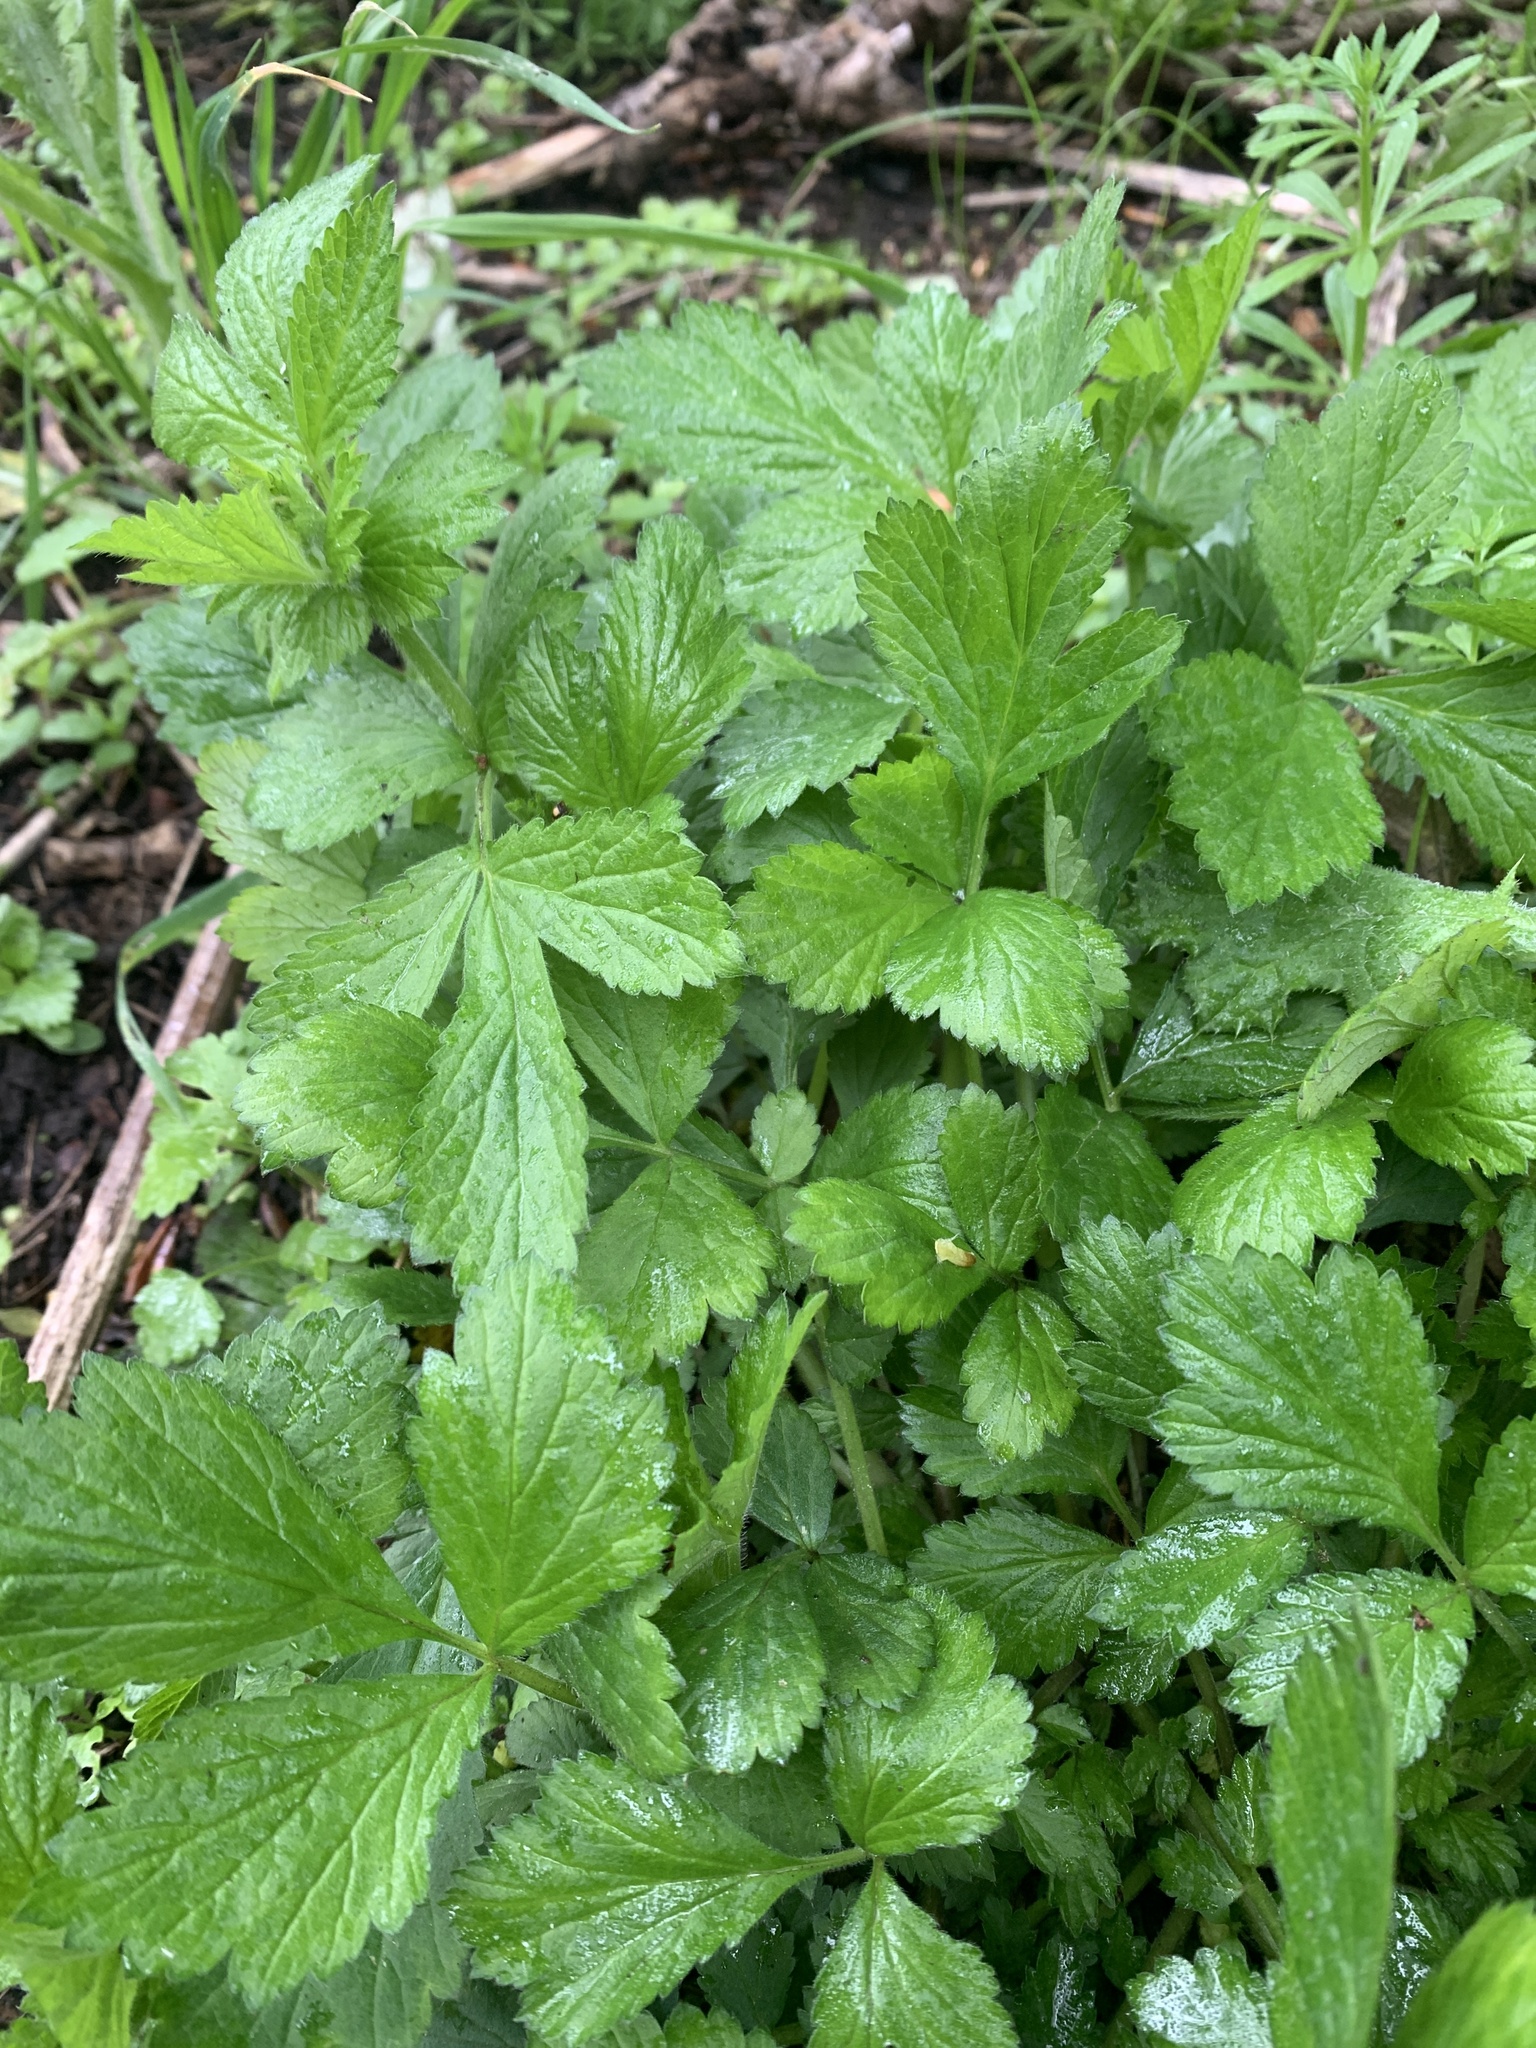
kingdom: Plantae
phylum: Tracheophyta
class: Magnoliopsida
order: Rosales
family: Rosaceae
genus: Geum
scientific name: Geum urbanum
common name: Wood avens
